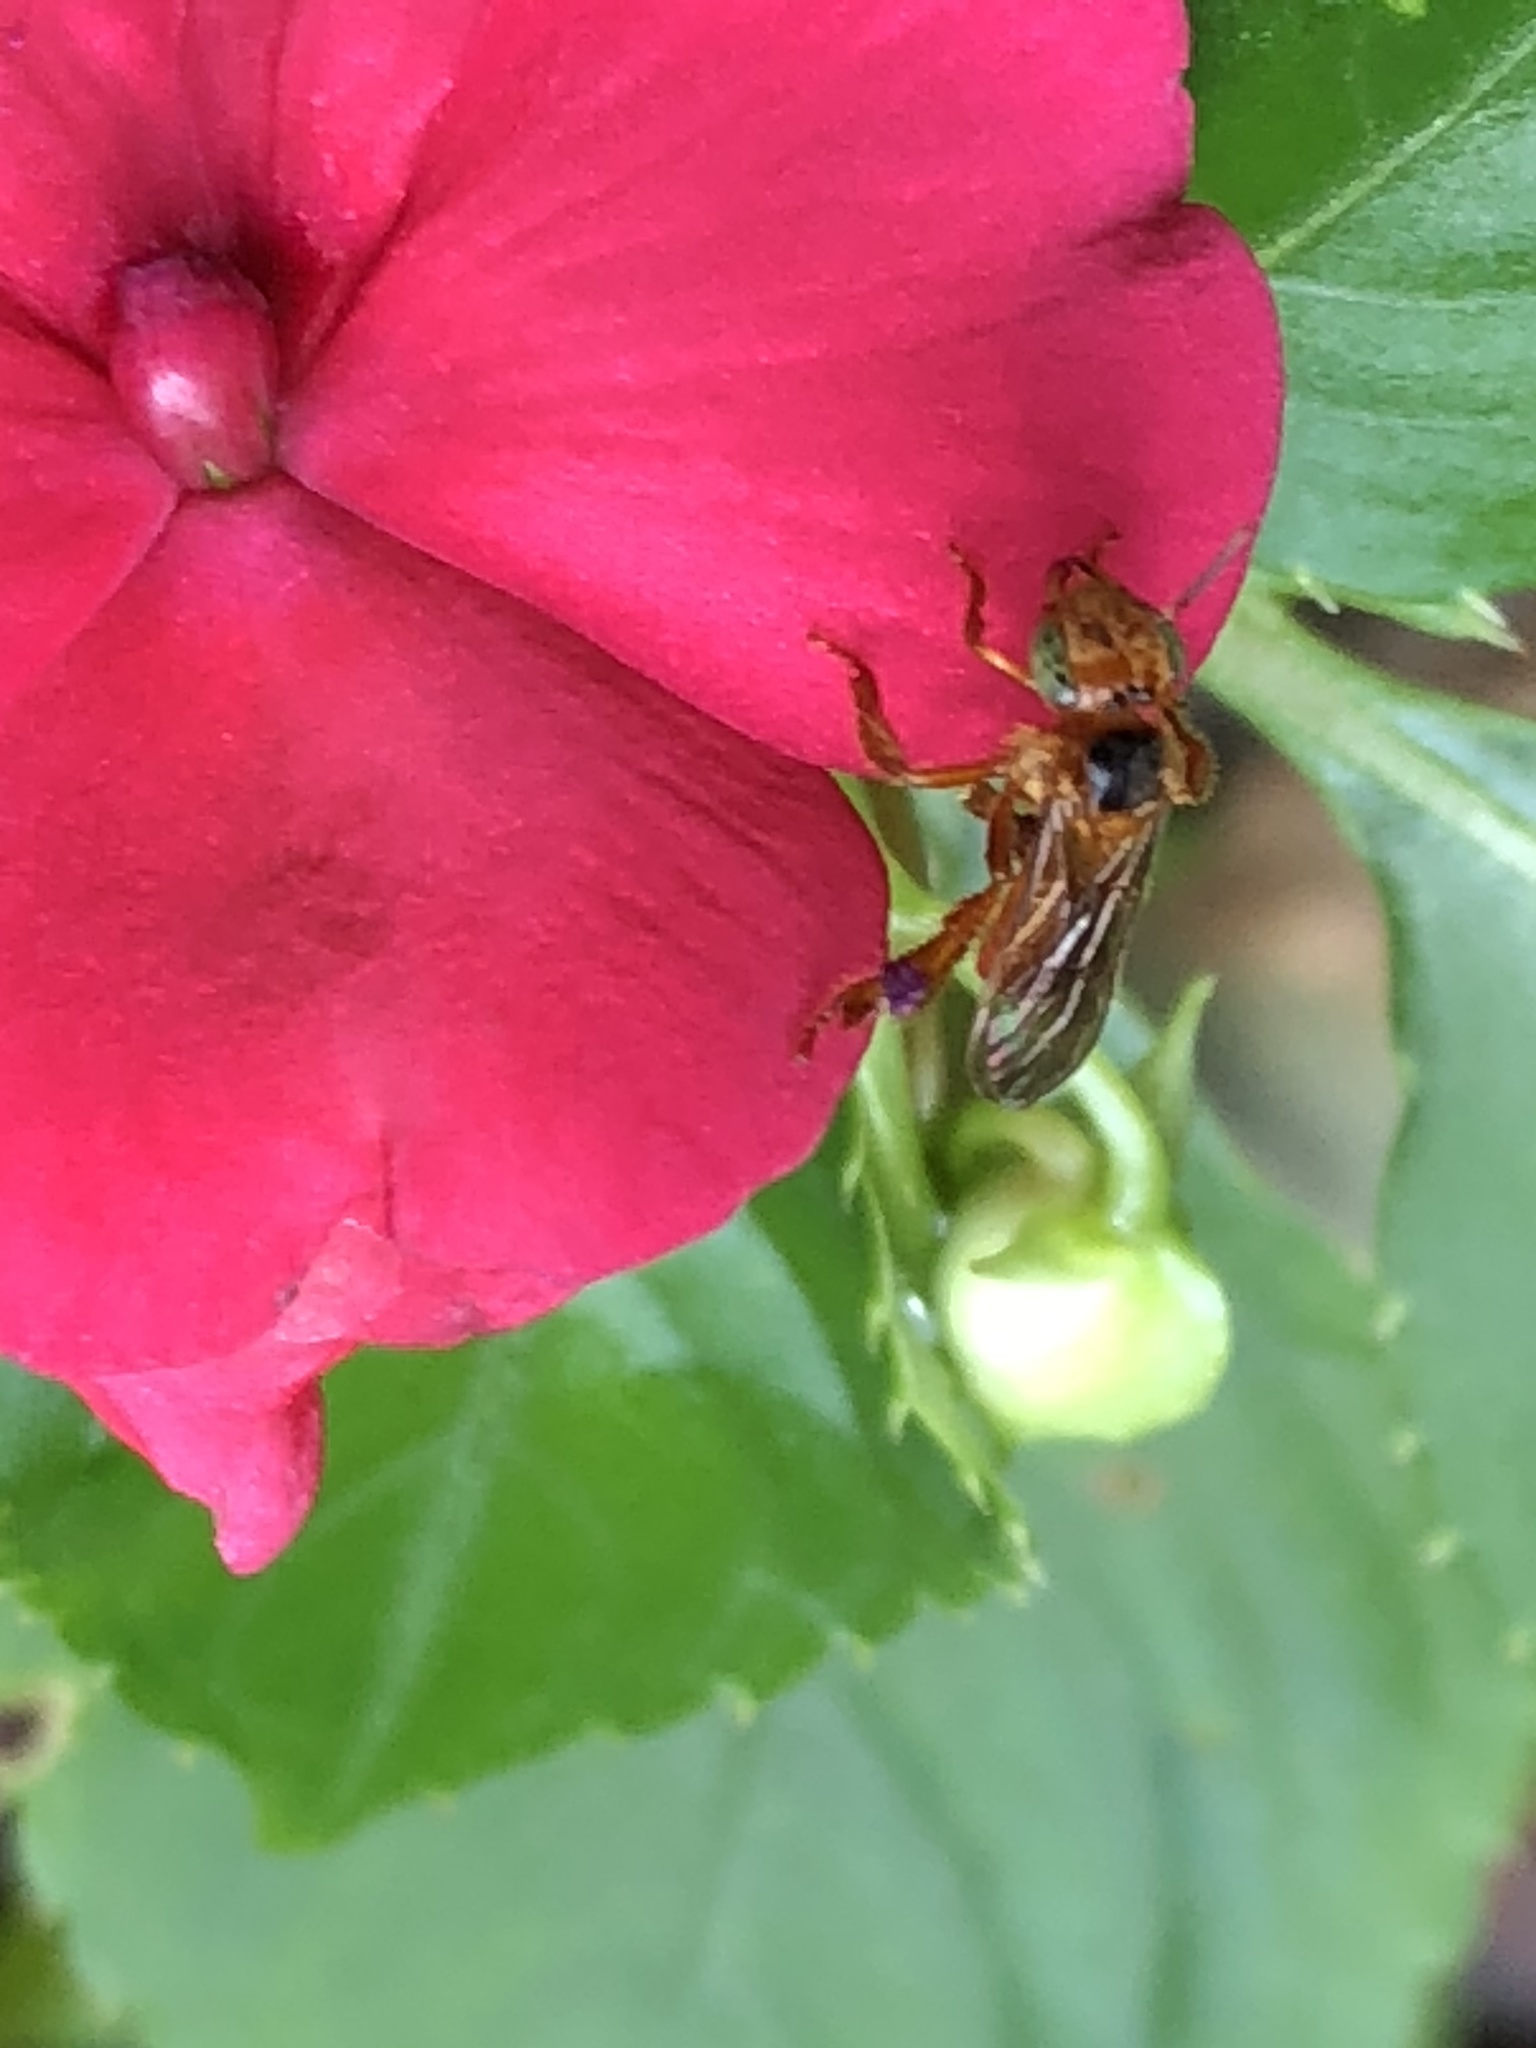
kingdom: Animalia
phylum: Arthropoda
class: Insecta
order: Hymenoptera
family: Apidae
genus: Trigona
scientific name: Trigona chanchamayoensis
